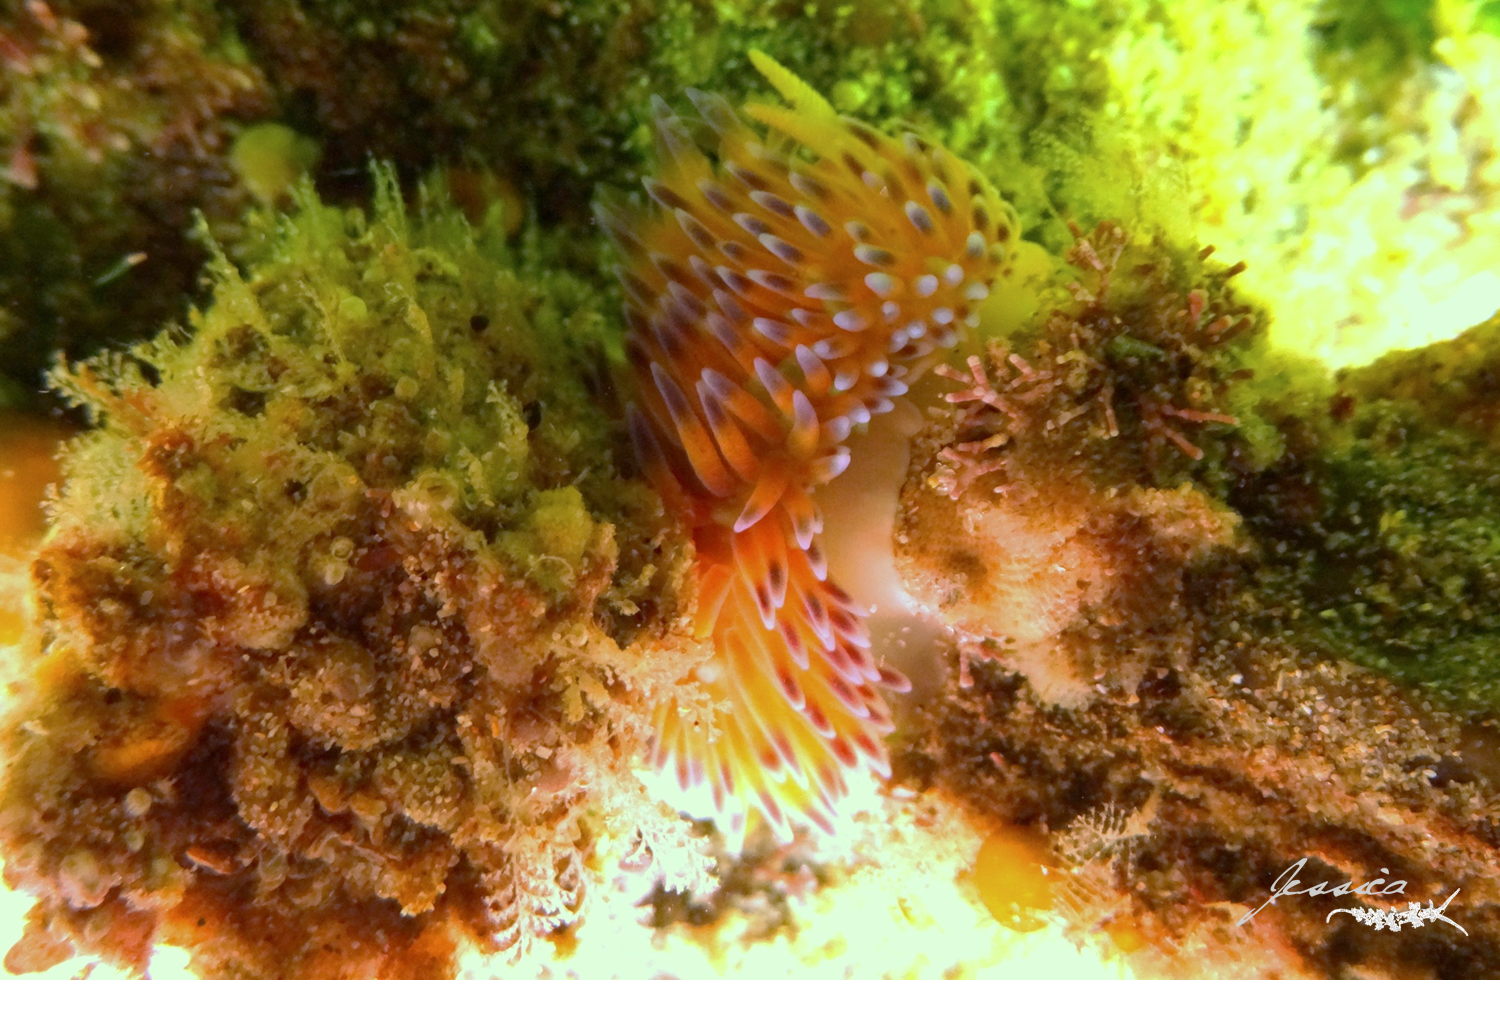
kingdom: Animalia
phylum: Mollusca
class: Gastropoda
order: Nudibranchia
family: Janolidae
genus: Bonisa
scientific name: Bonisa nakaza
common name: Gas flame nudibranch
